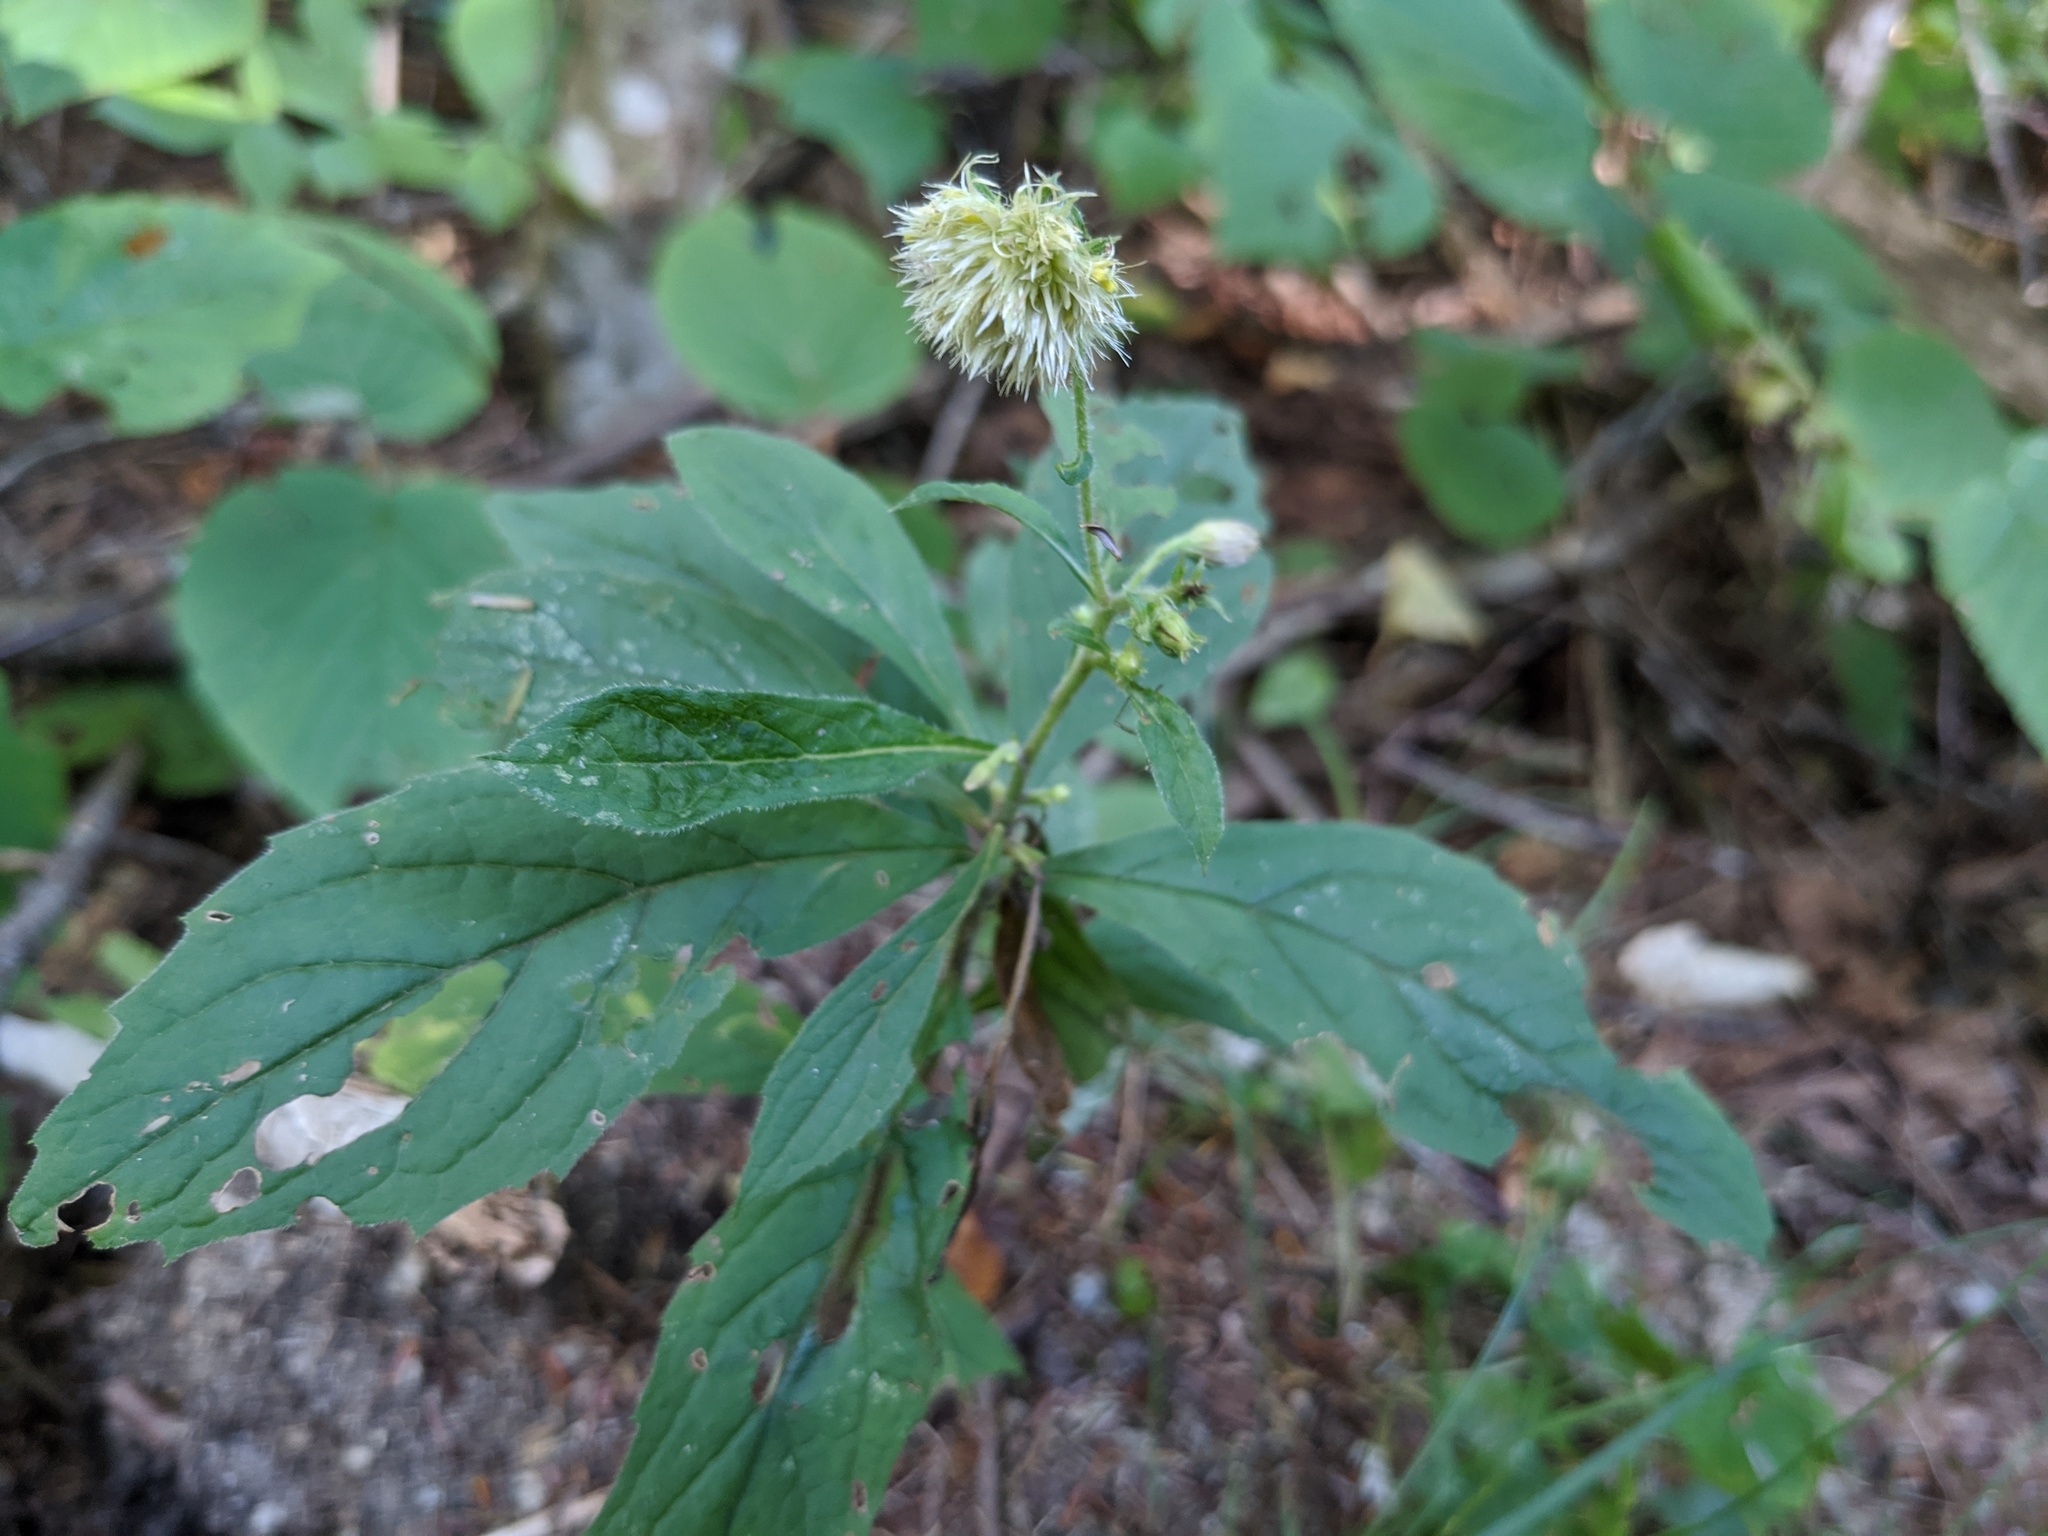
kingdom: Plantae
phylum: Tracheophyta
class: Magnoliopsida
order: Asterales
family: Asteraceae
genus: Oclemena
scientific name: Oclemena acuminata
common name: Mountain aster
